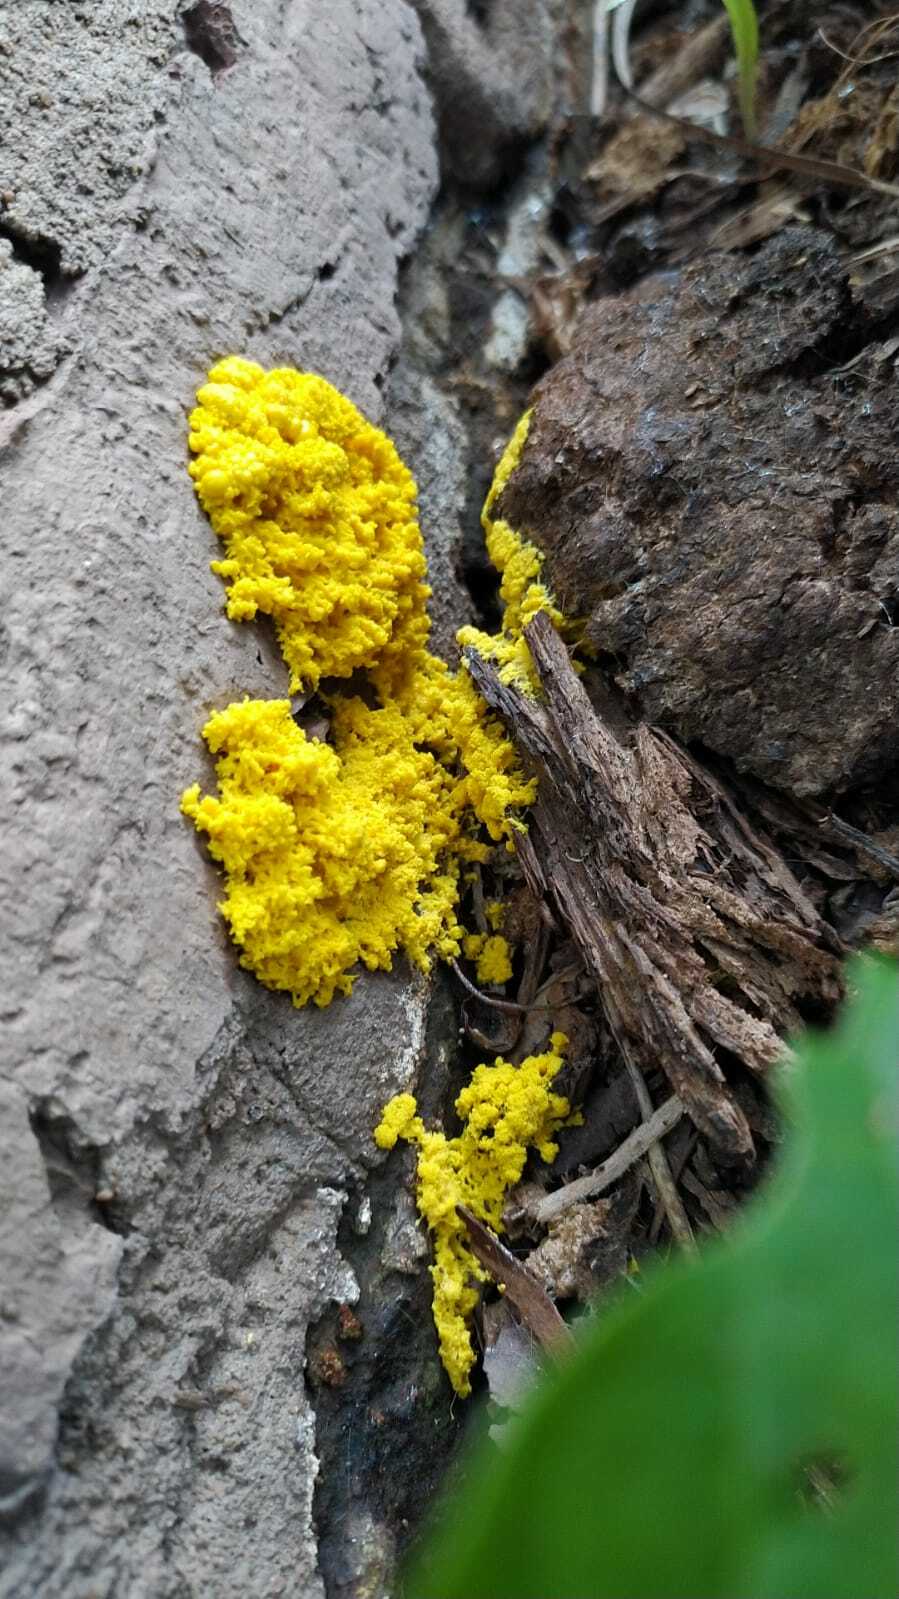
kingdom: Protozoa
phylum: Mycetozoa
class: Myxomycetes
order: Physarales
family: Physaraceae
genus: Fuligo
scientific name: Fuligo septica
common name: Dog vomit slime mold
